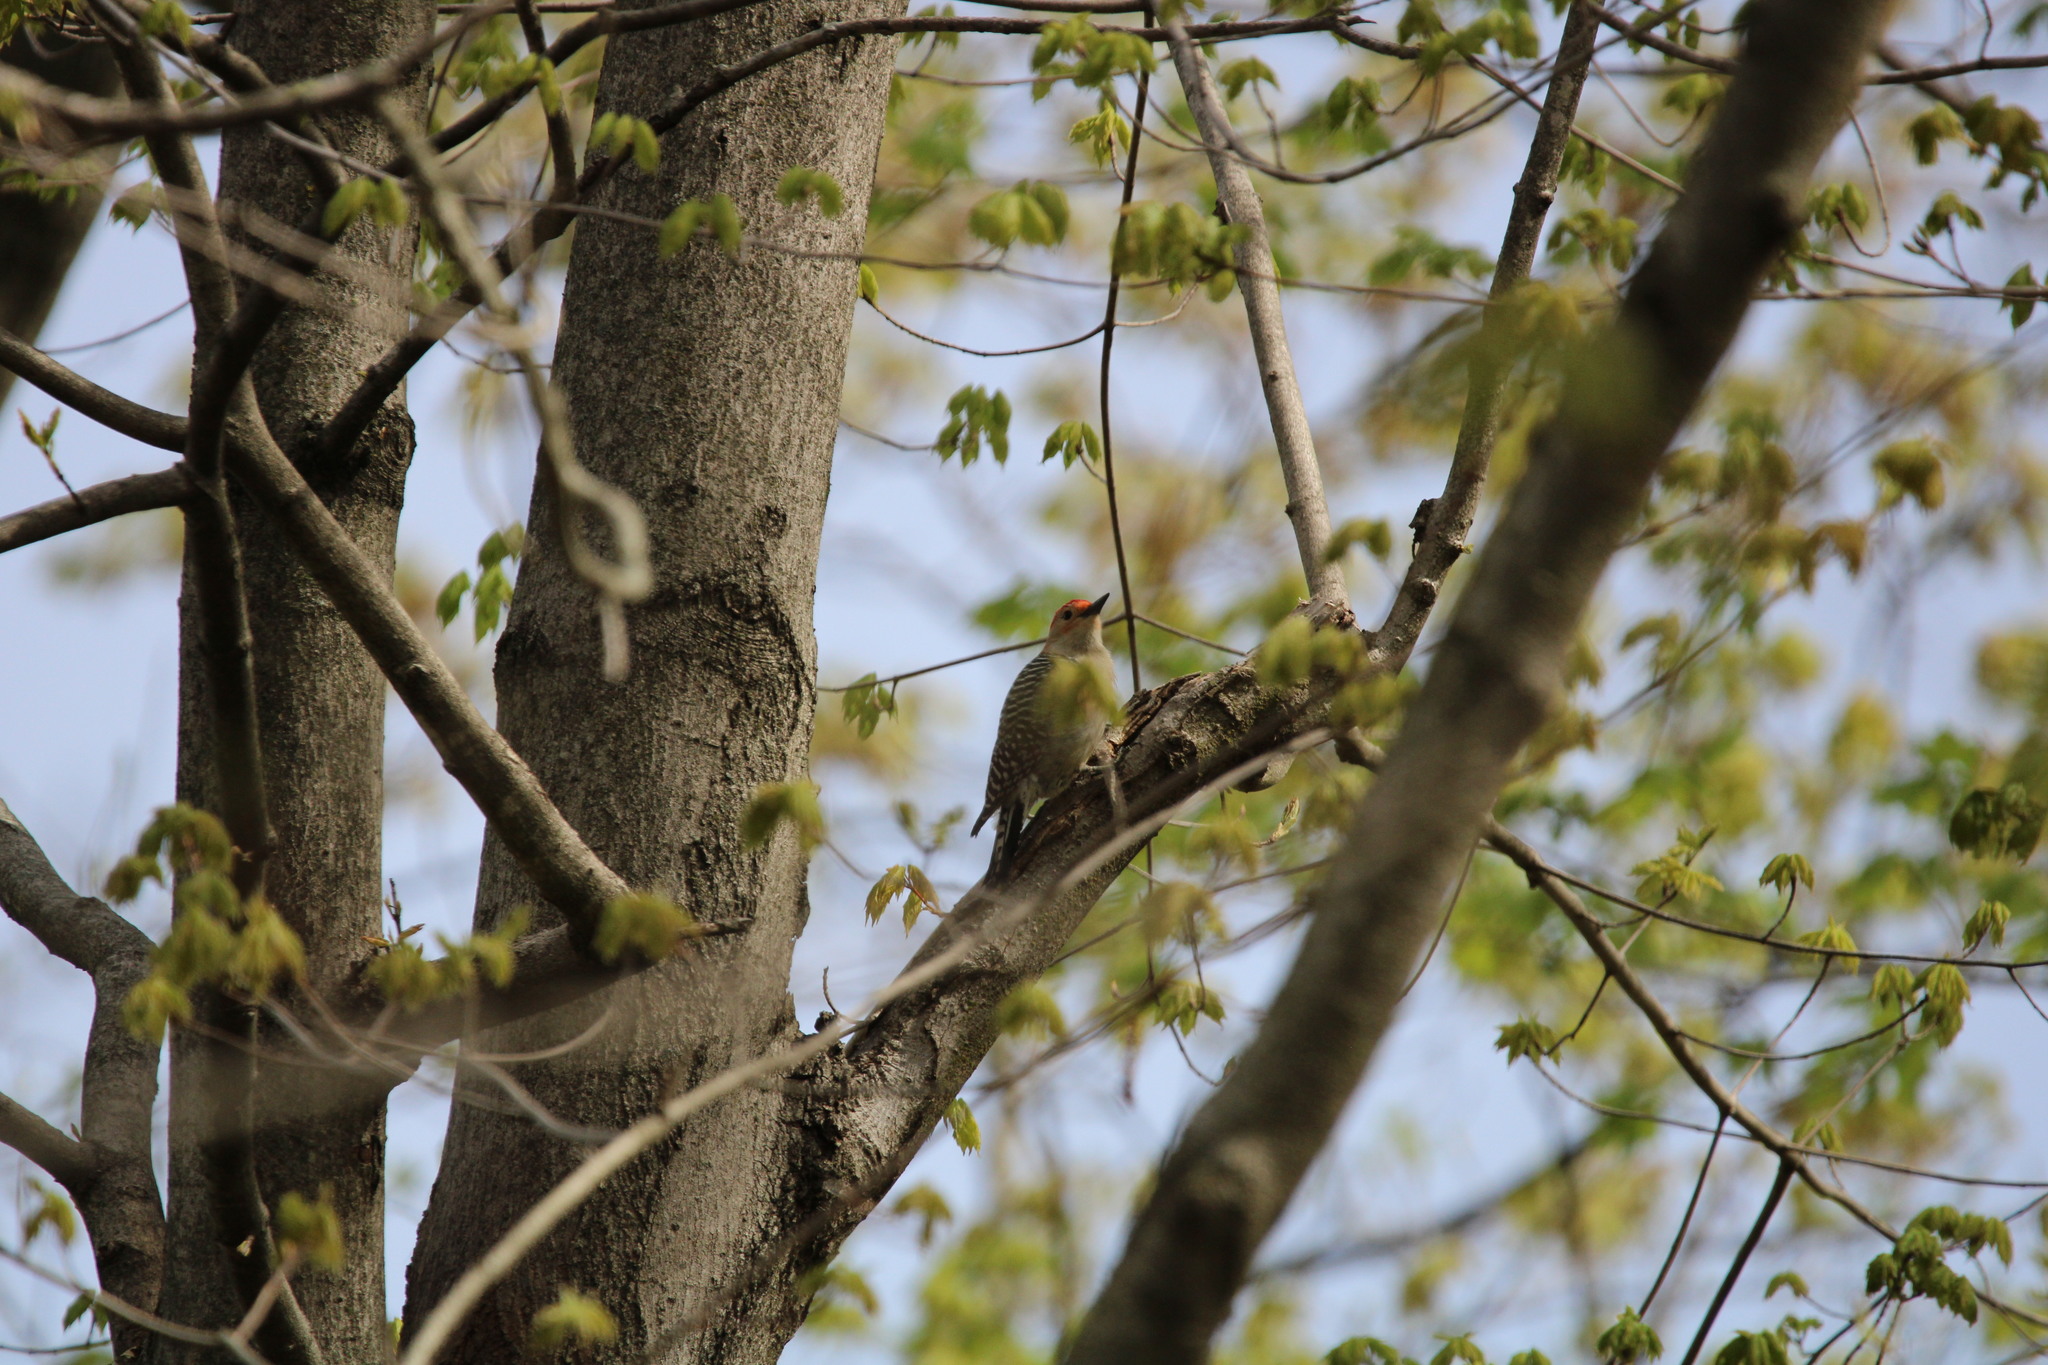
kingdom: Animalia
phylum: Chordata
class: Aves
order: Piciformes
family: Picidae
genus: Melanerpes
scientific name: Melanerpes carolinus
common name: Red-bellied woodpecker
